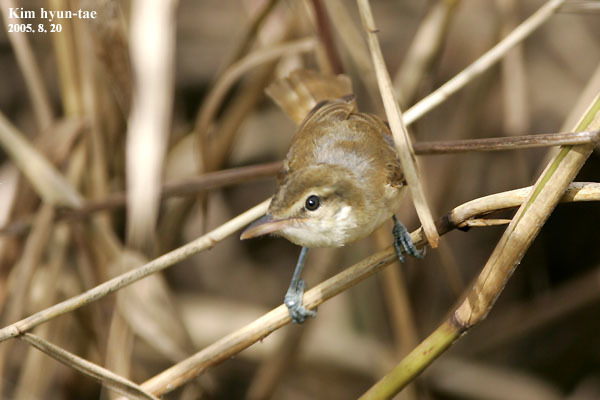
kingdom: Animalia
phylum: Chordata
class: Aves
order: Passeriformes
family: Acrocephalidae
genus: Acrocephalus
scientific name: Acrocephalus orientalis
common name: Oriental reed warbler
